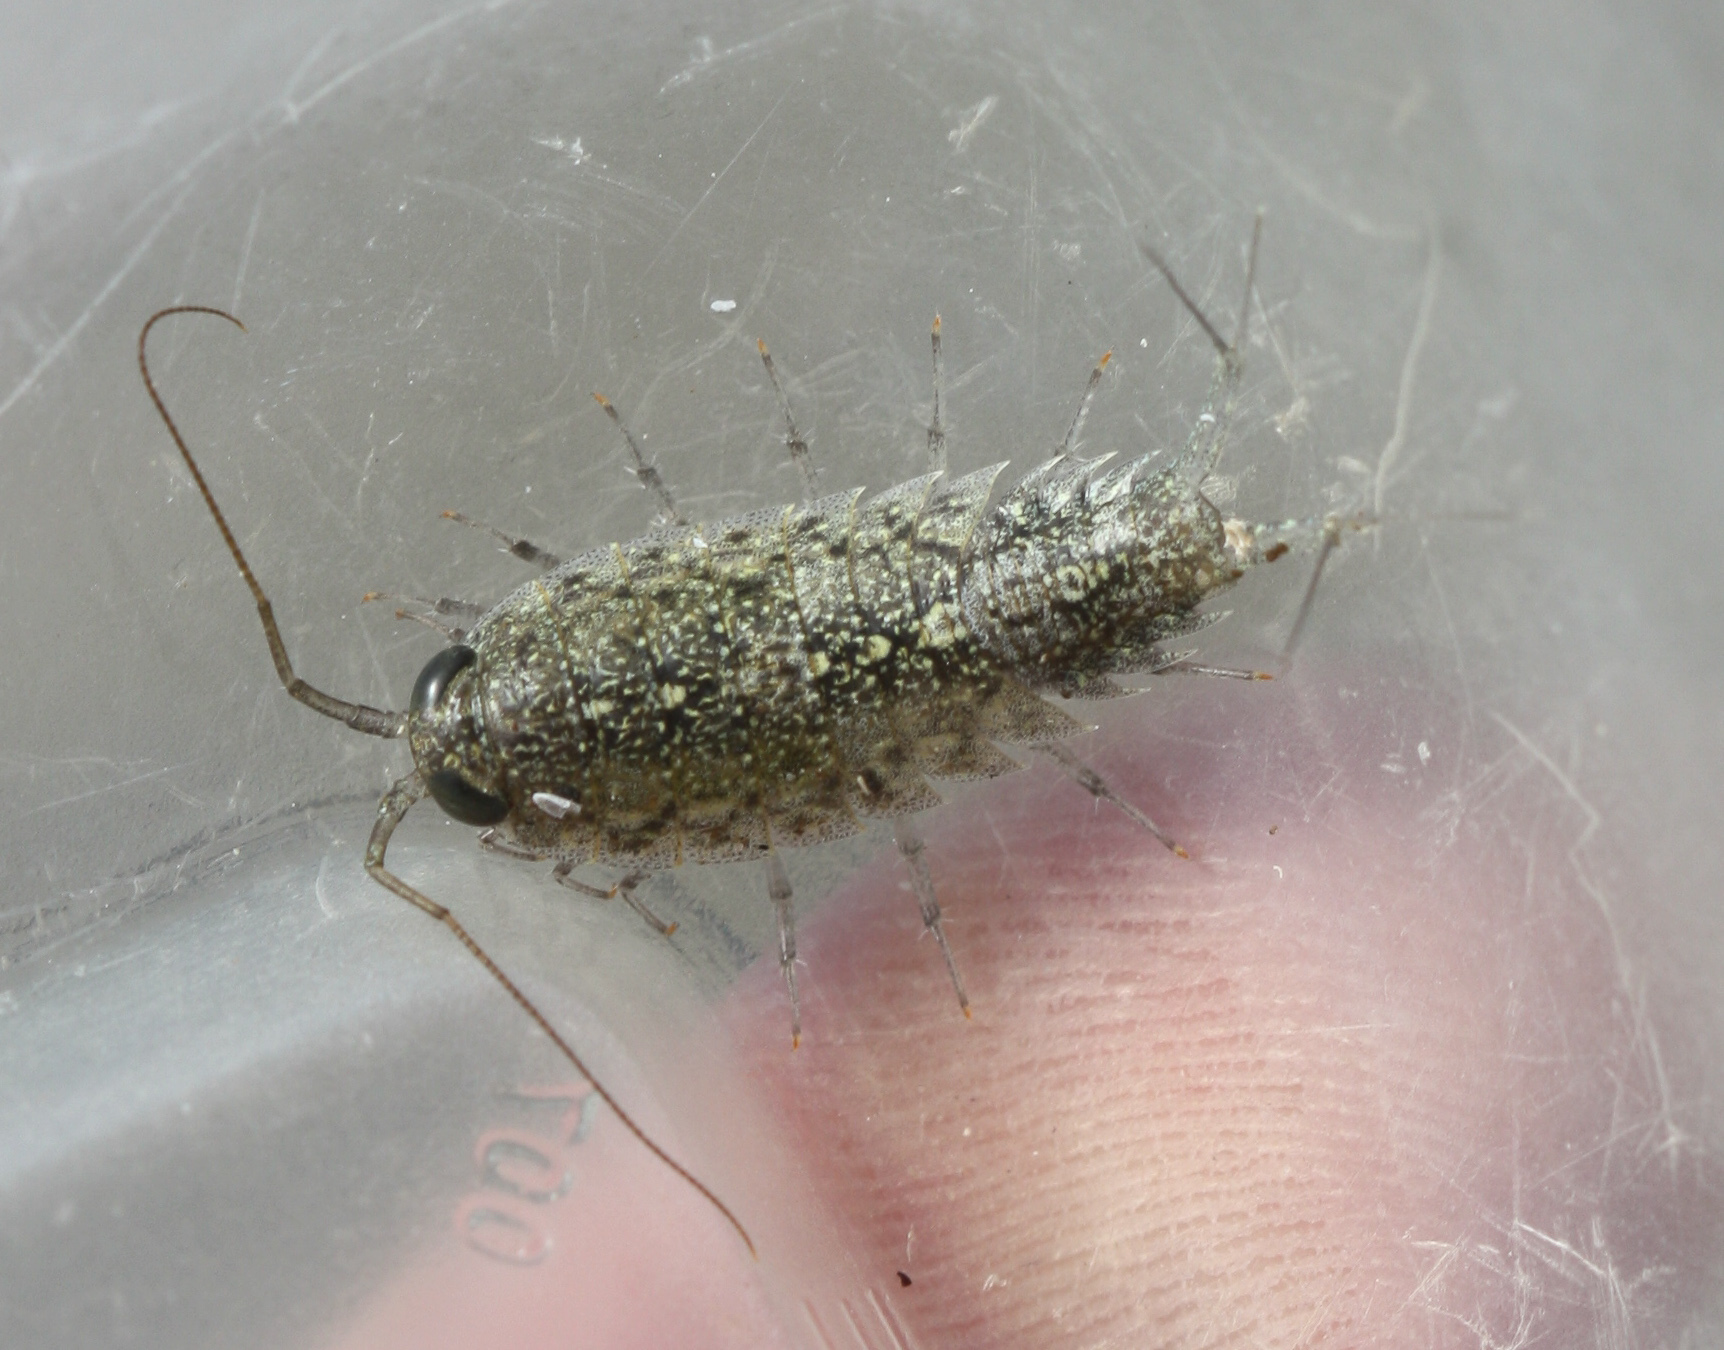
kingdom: Animalia
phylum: Arthropoda
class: Malacostraca
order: Isopoda
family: Ligiidae
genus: Ligia
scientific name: Ligia exotica
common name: Wharf roach
